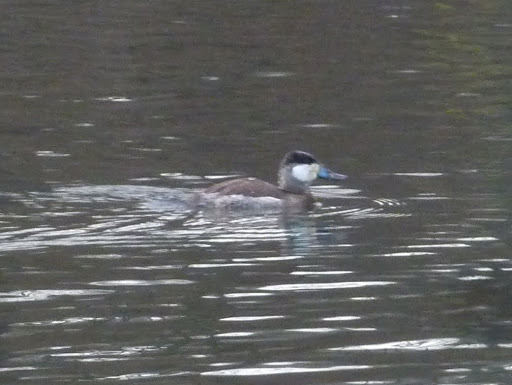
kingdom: Animalia
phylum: Chordata
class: Aves
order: Anseriformes
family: Anatidae
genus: Oxyura
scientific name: Oxyura jamaicensis
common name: Ruddy duck
